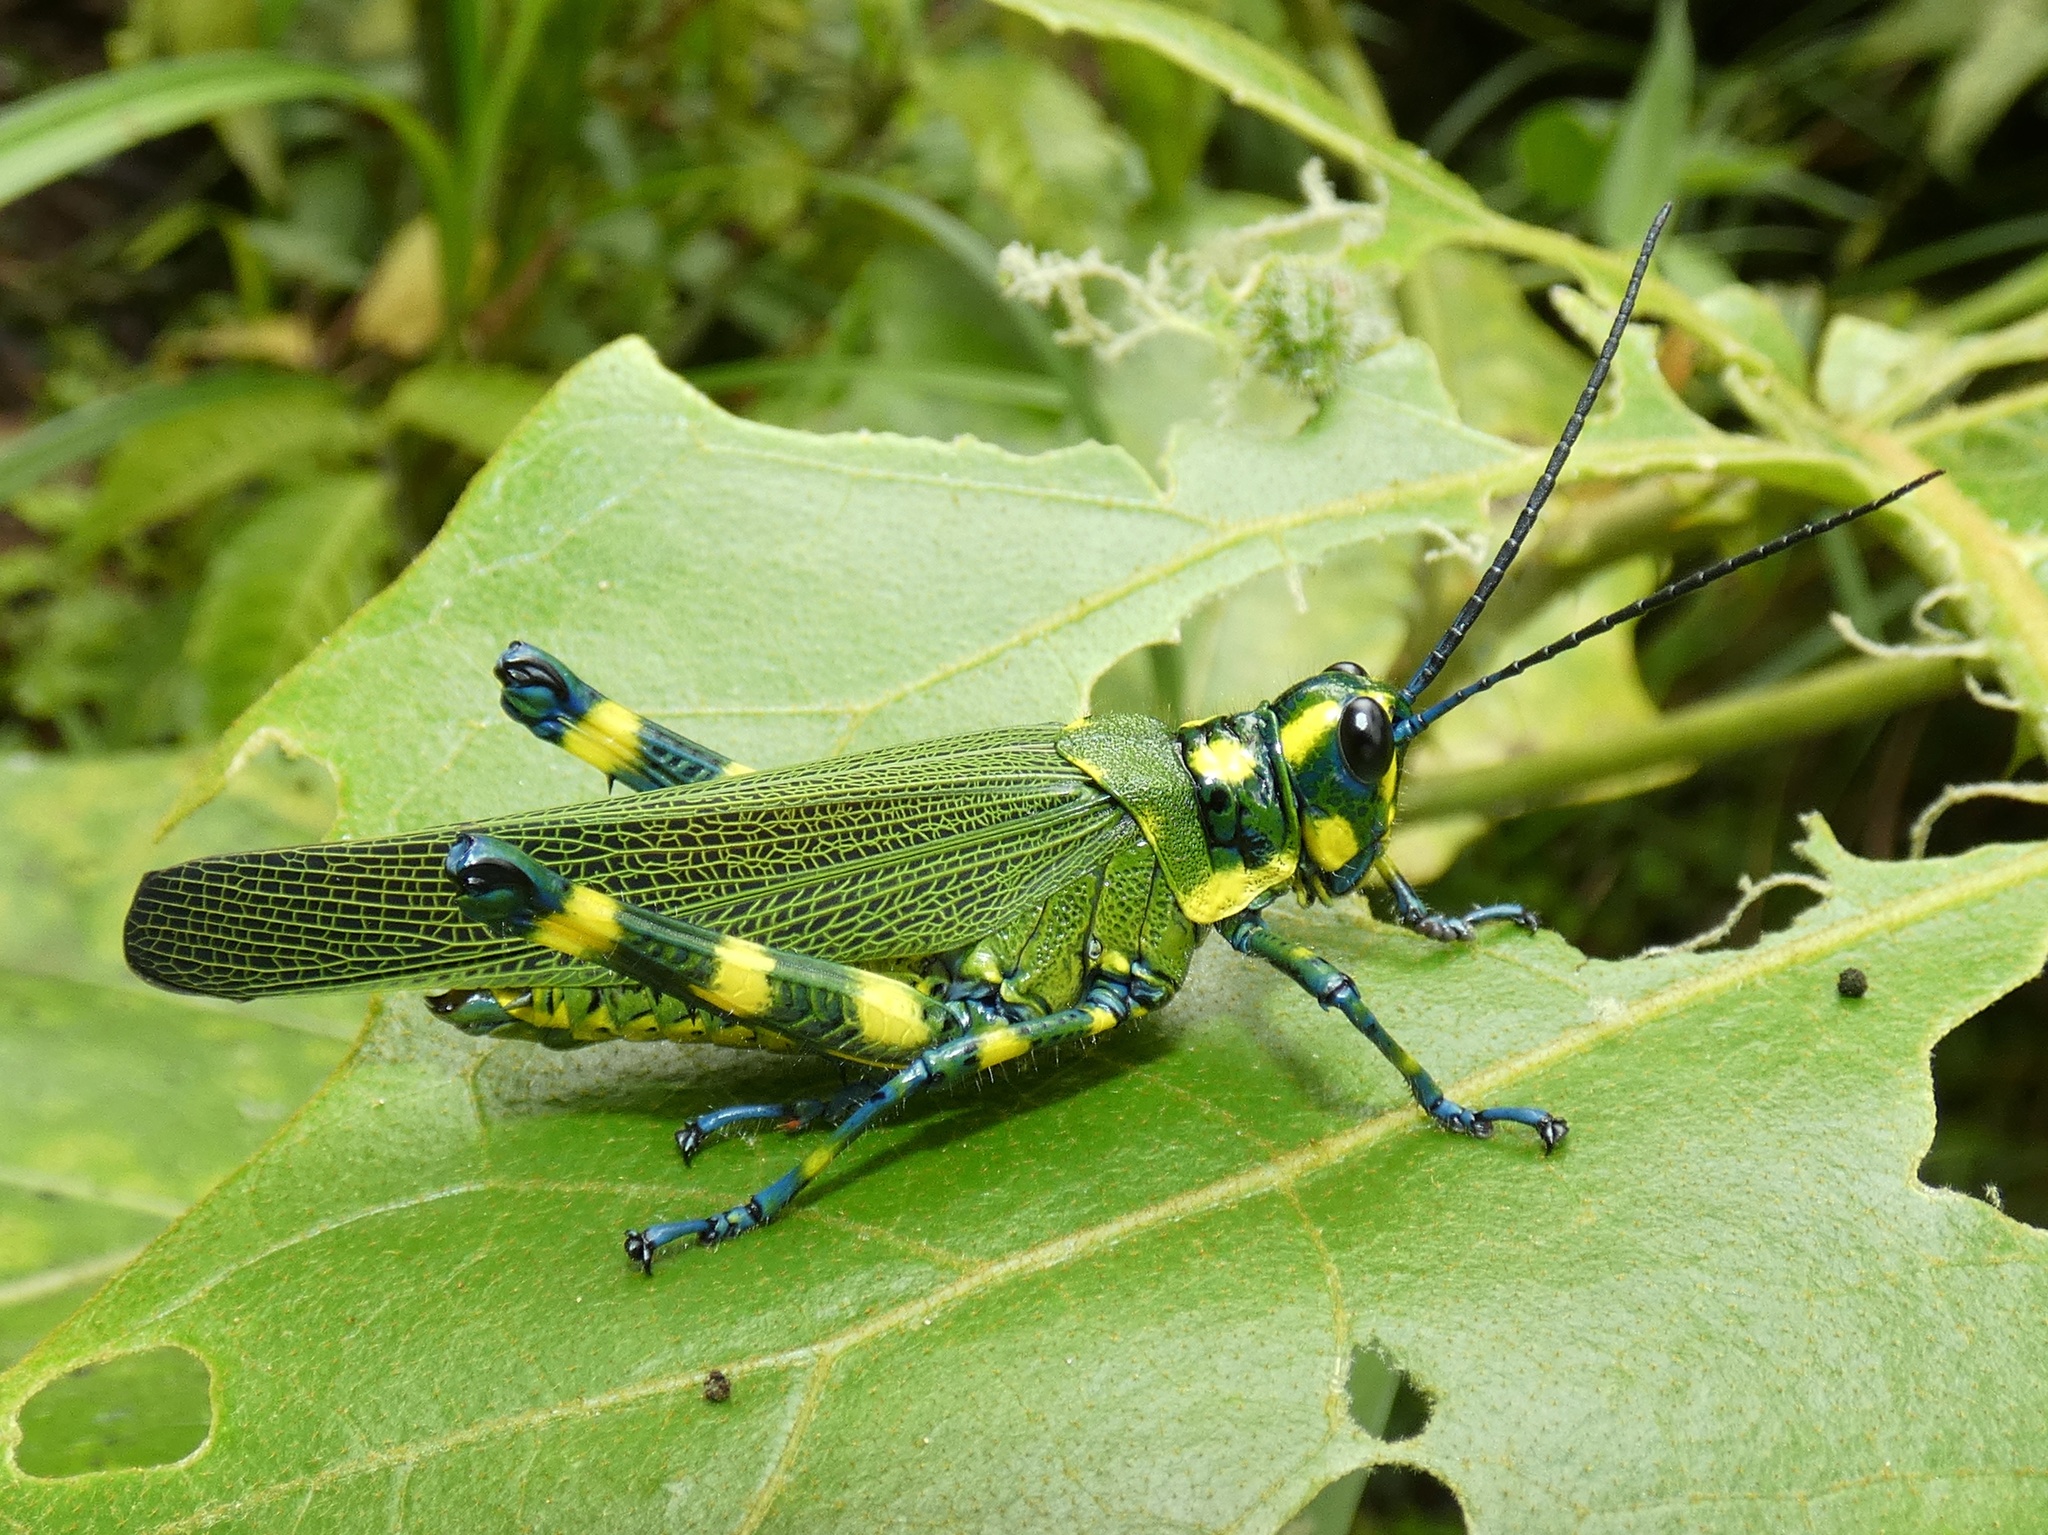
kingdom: Animalia
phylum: Arthropoda
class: Insecta
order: Orthoptera
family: Romaleidae
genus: Chromacris
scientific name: Chromacris psittacus
